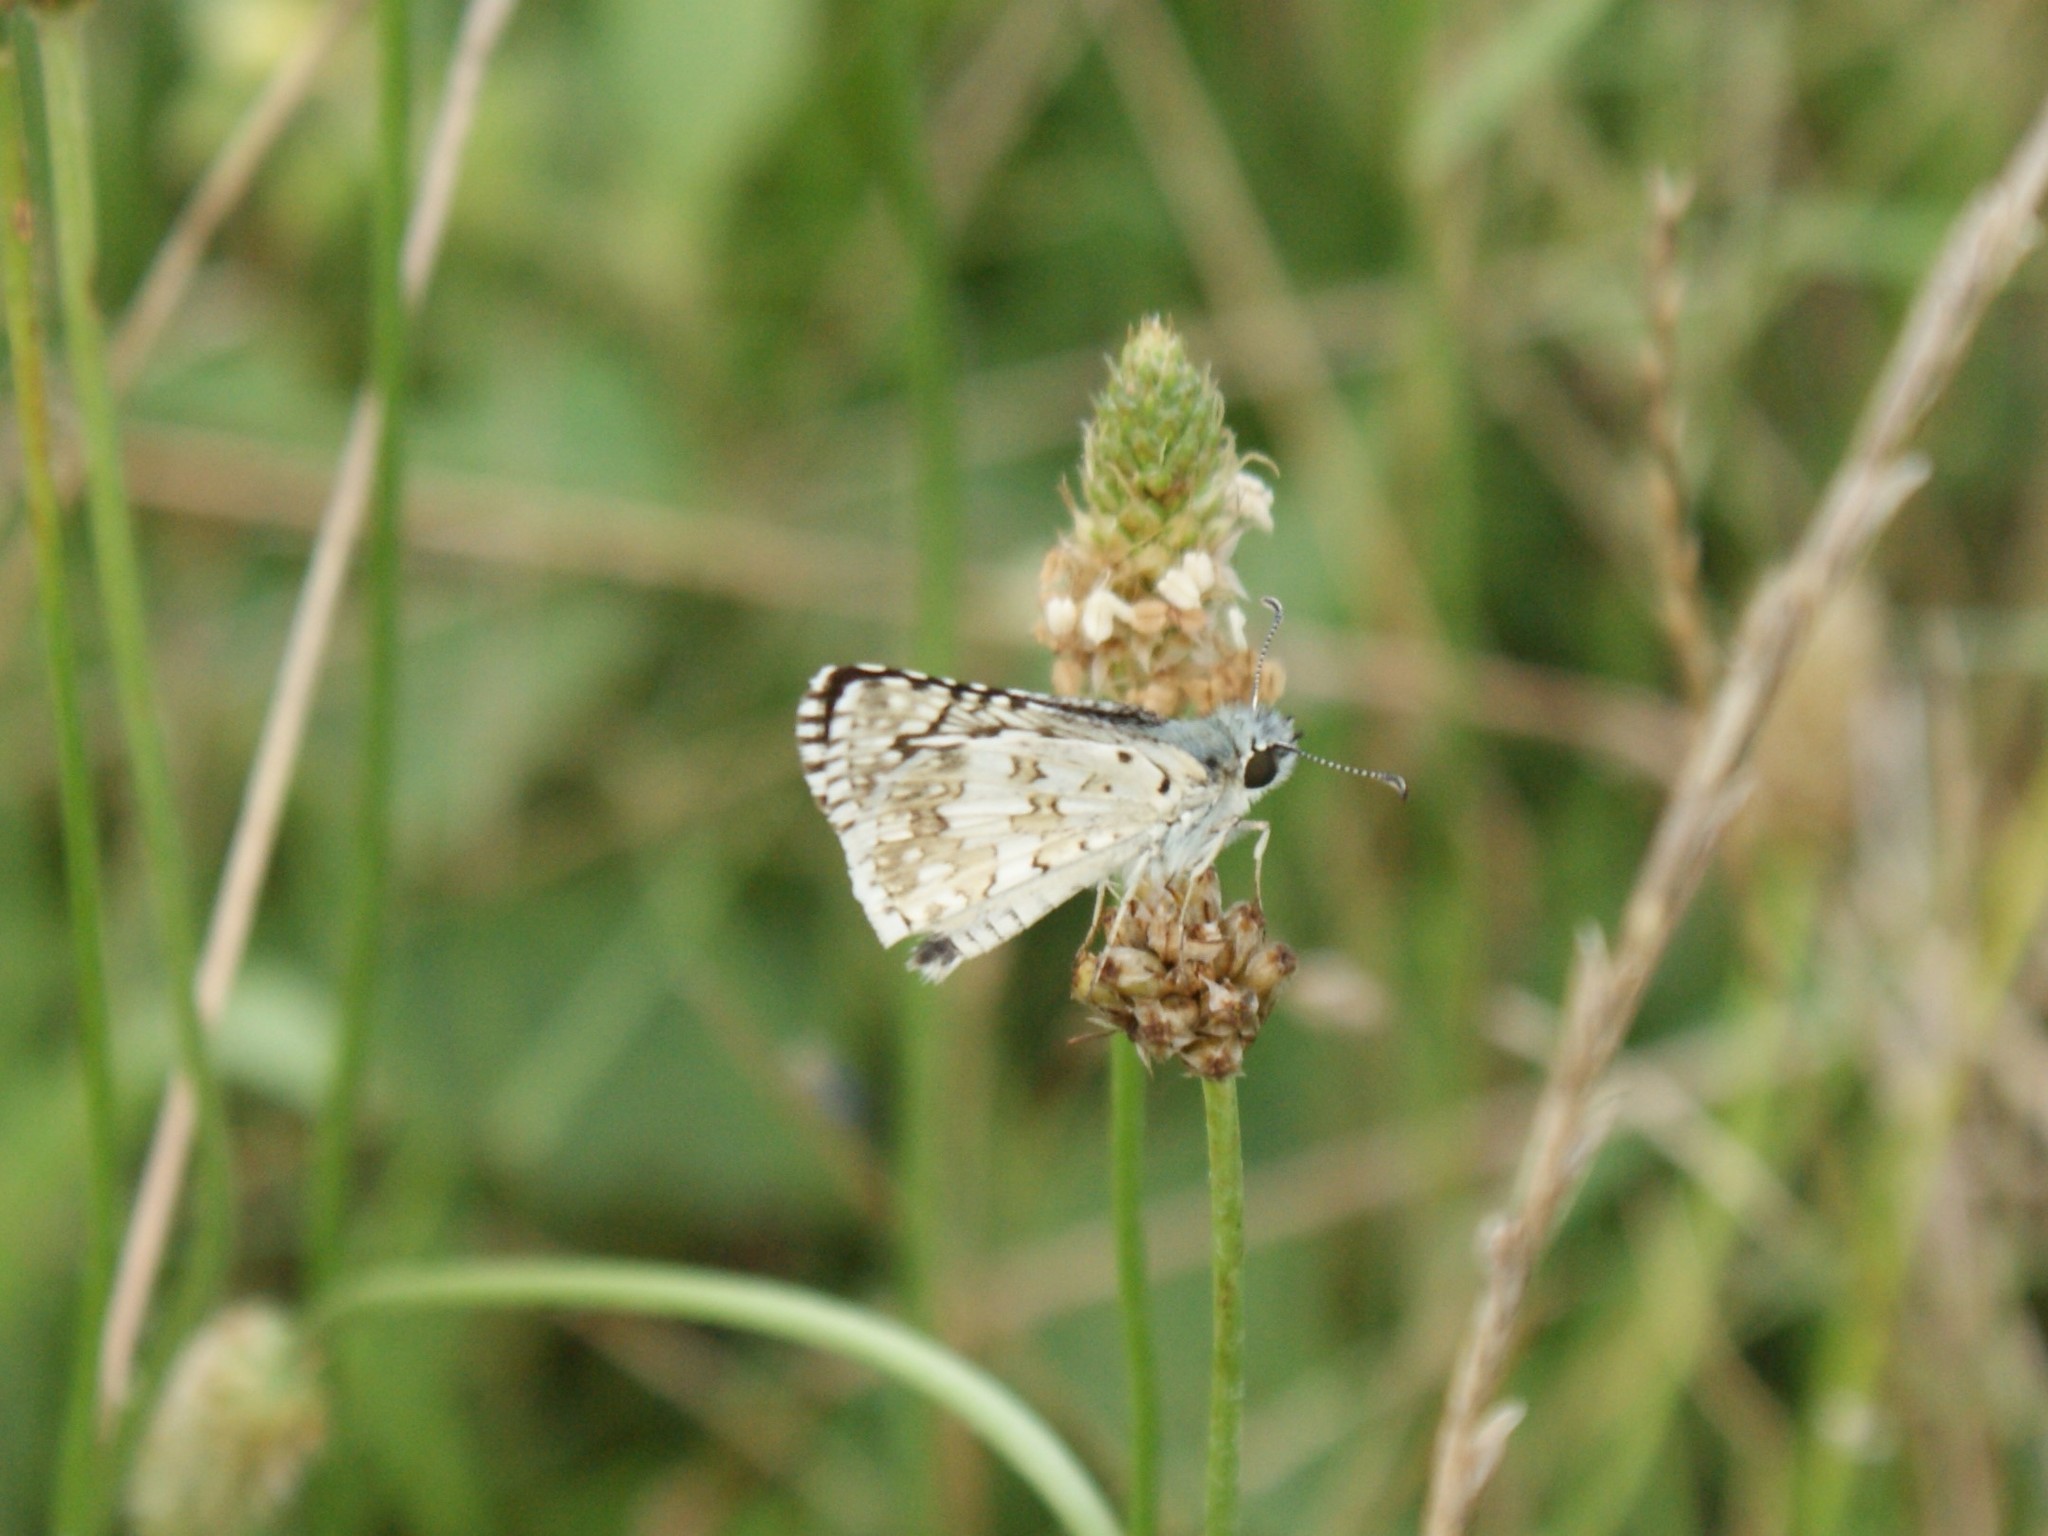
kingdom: Animalia
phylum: Arthropoda
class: Insecta
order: Lepidoptera
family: Hesperiidae
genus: Burnsius
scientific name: Burnsius communis
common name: Common checkered-skipper
